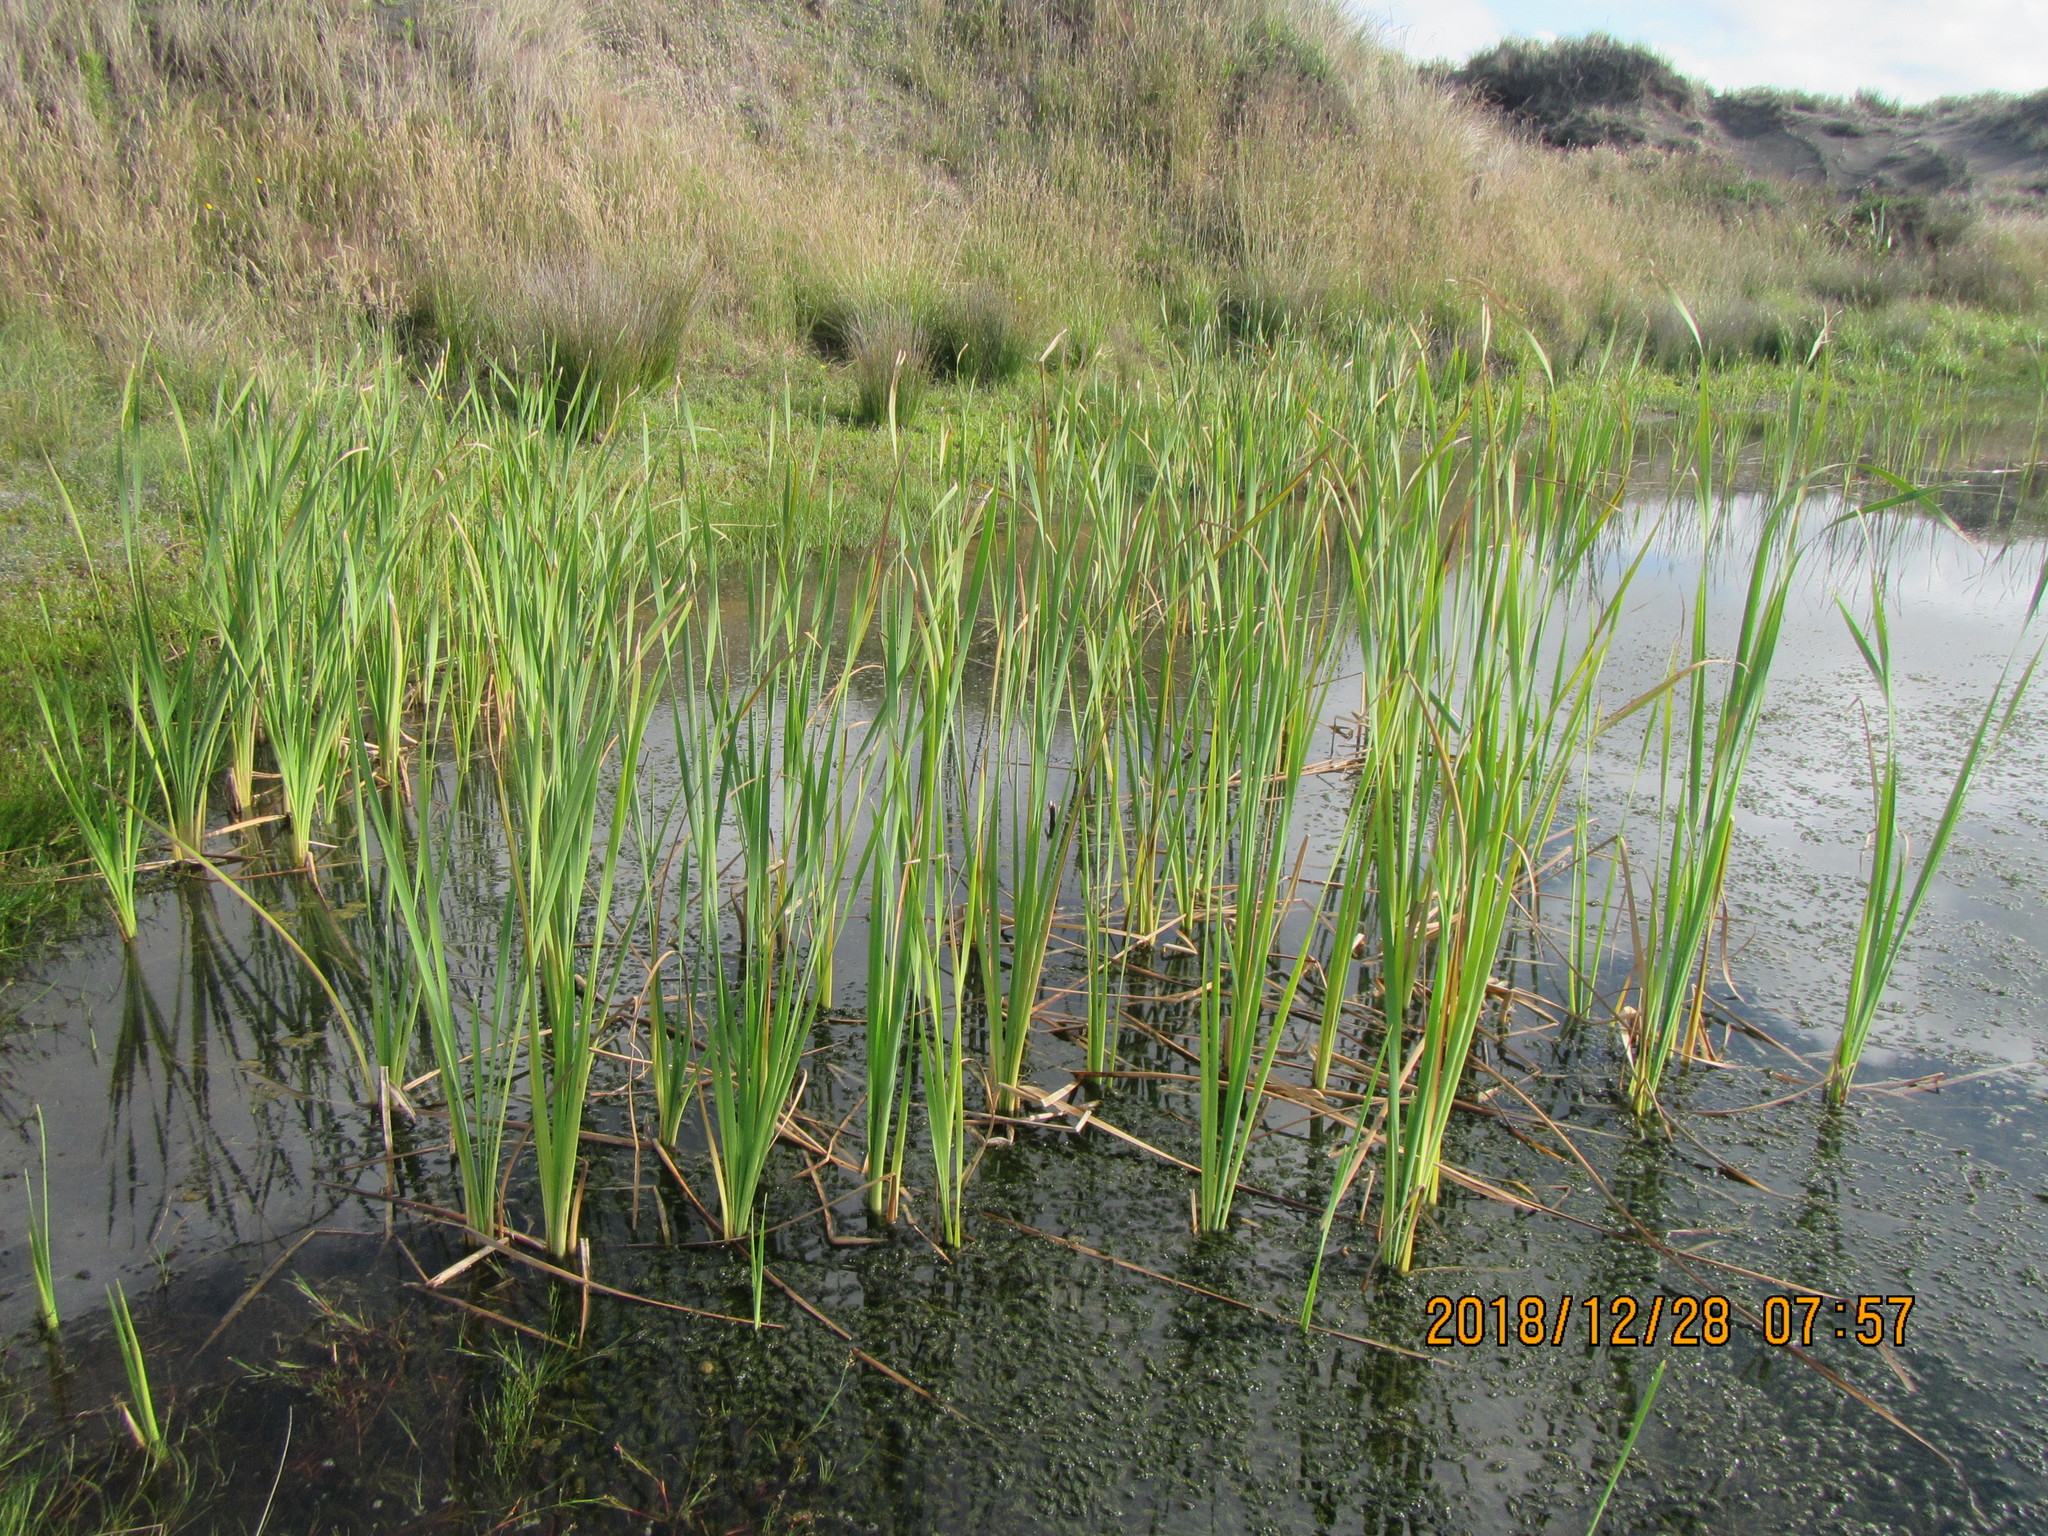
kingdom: Plantae
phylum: Tracheophyta
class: Liliopsida
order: Poales
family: Typhaceae
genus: Typha
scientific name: Typha orientalis
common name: Bullrush
